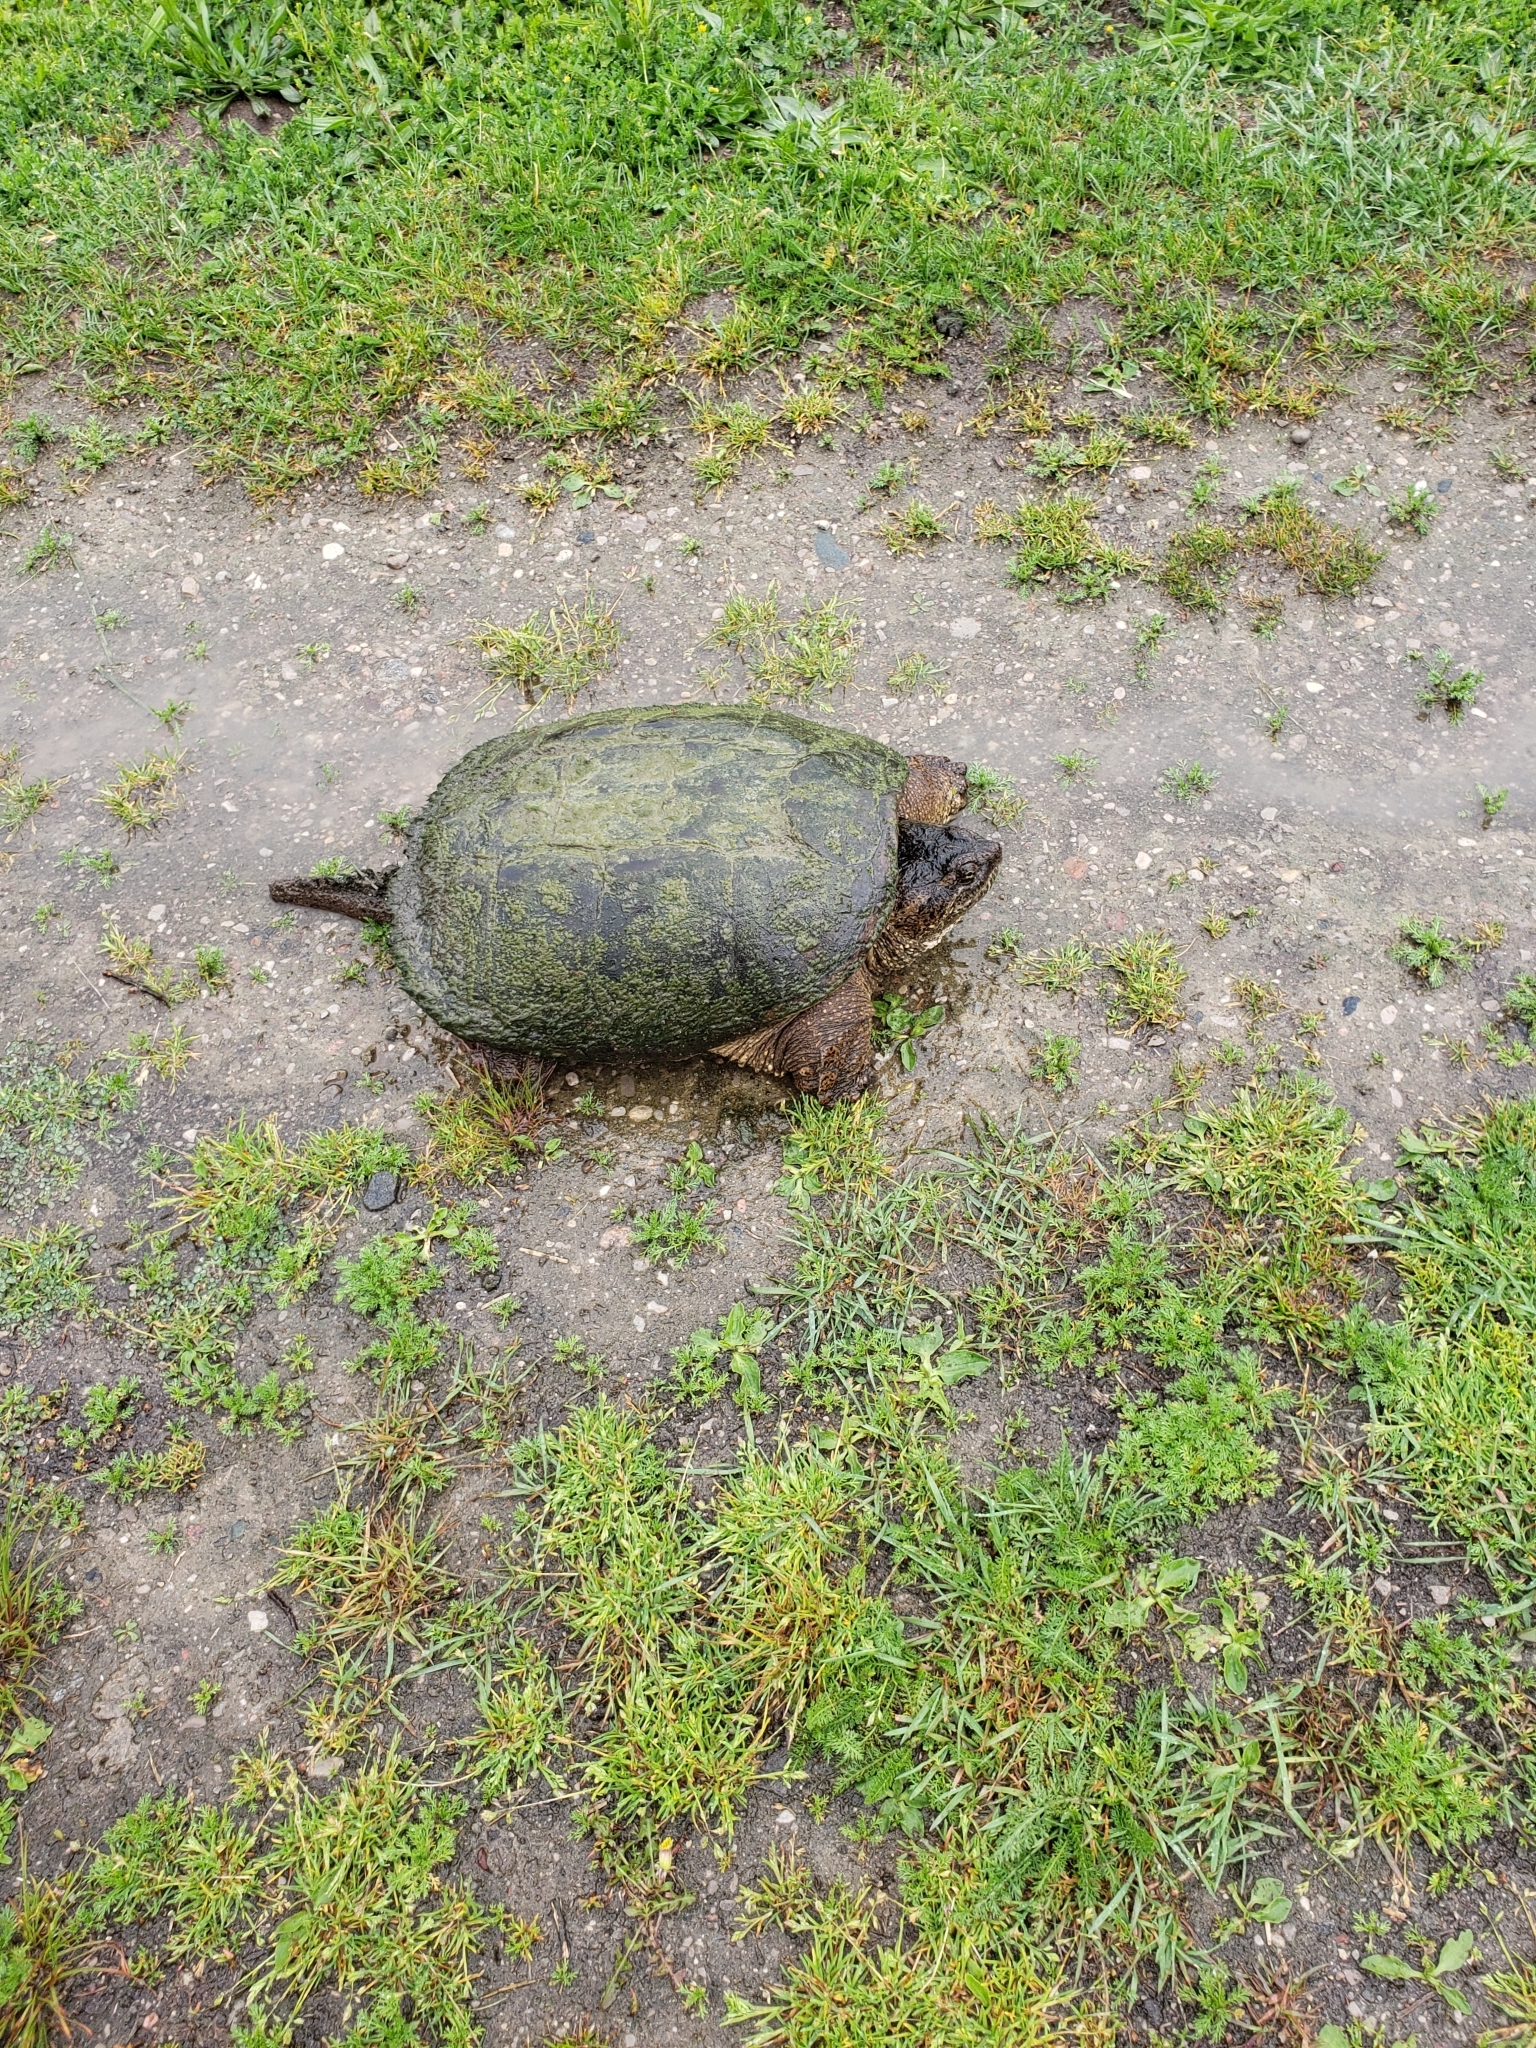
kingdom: Animalia
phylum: Chordata
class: Testudines
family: Chelydridae
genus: Chelydra
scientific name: Chelydra serpentina
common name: Common snapping turtle
